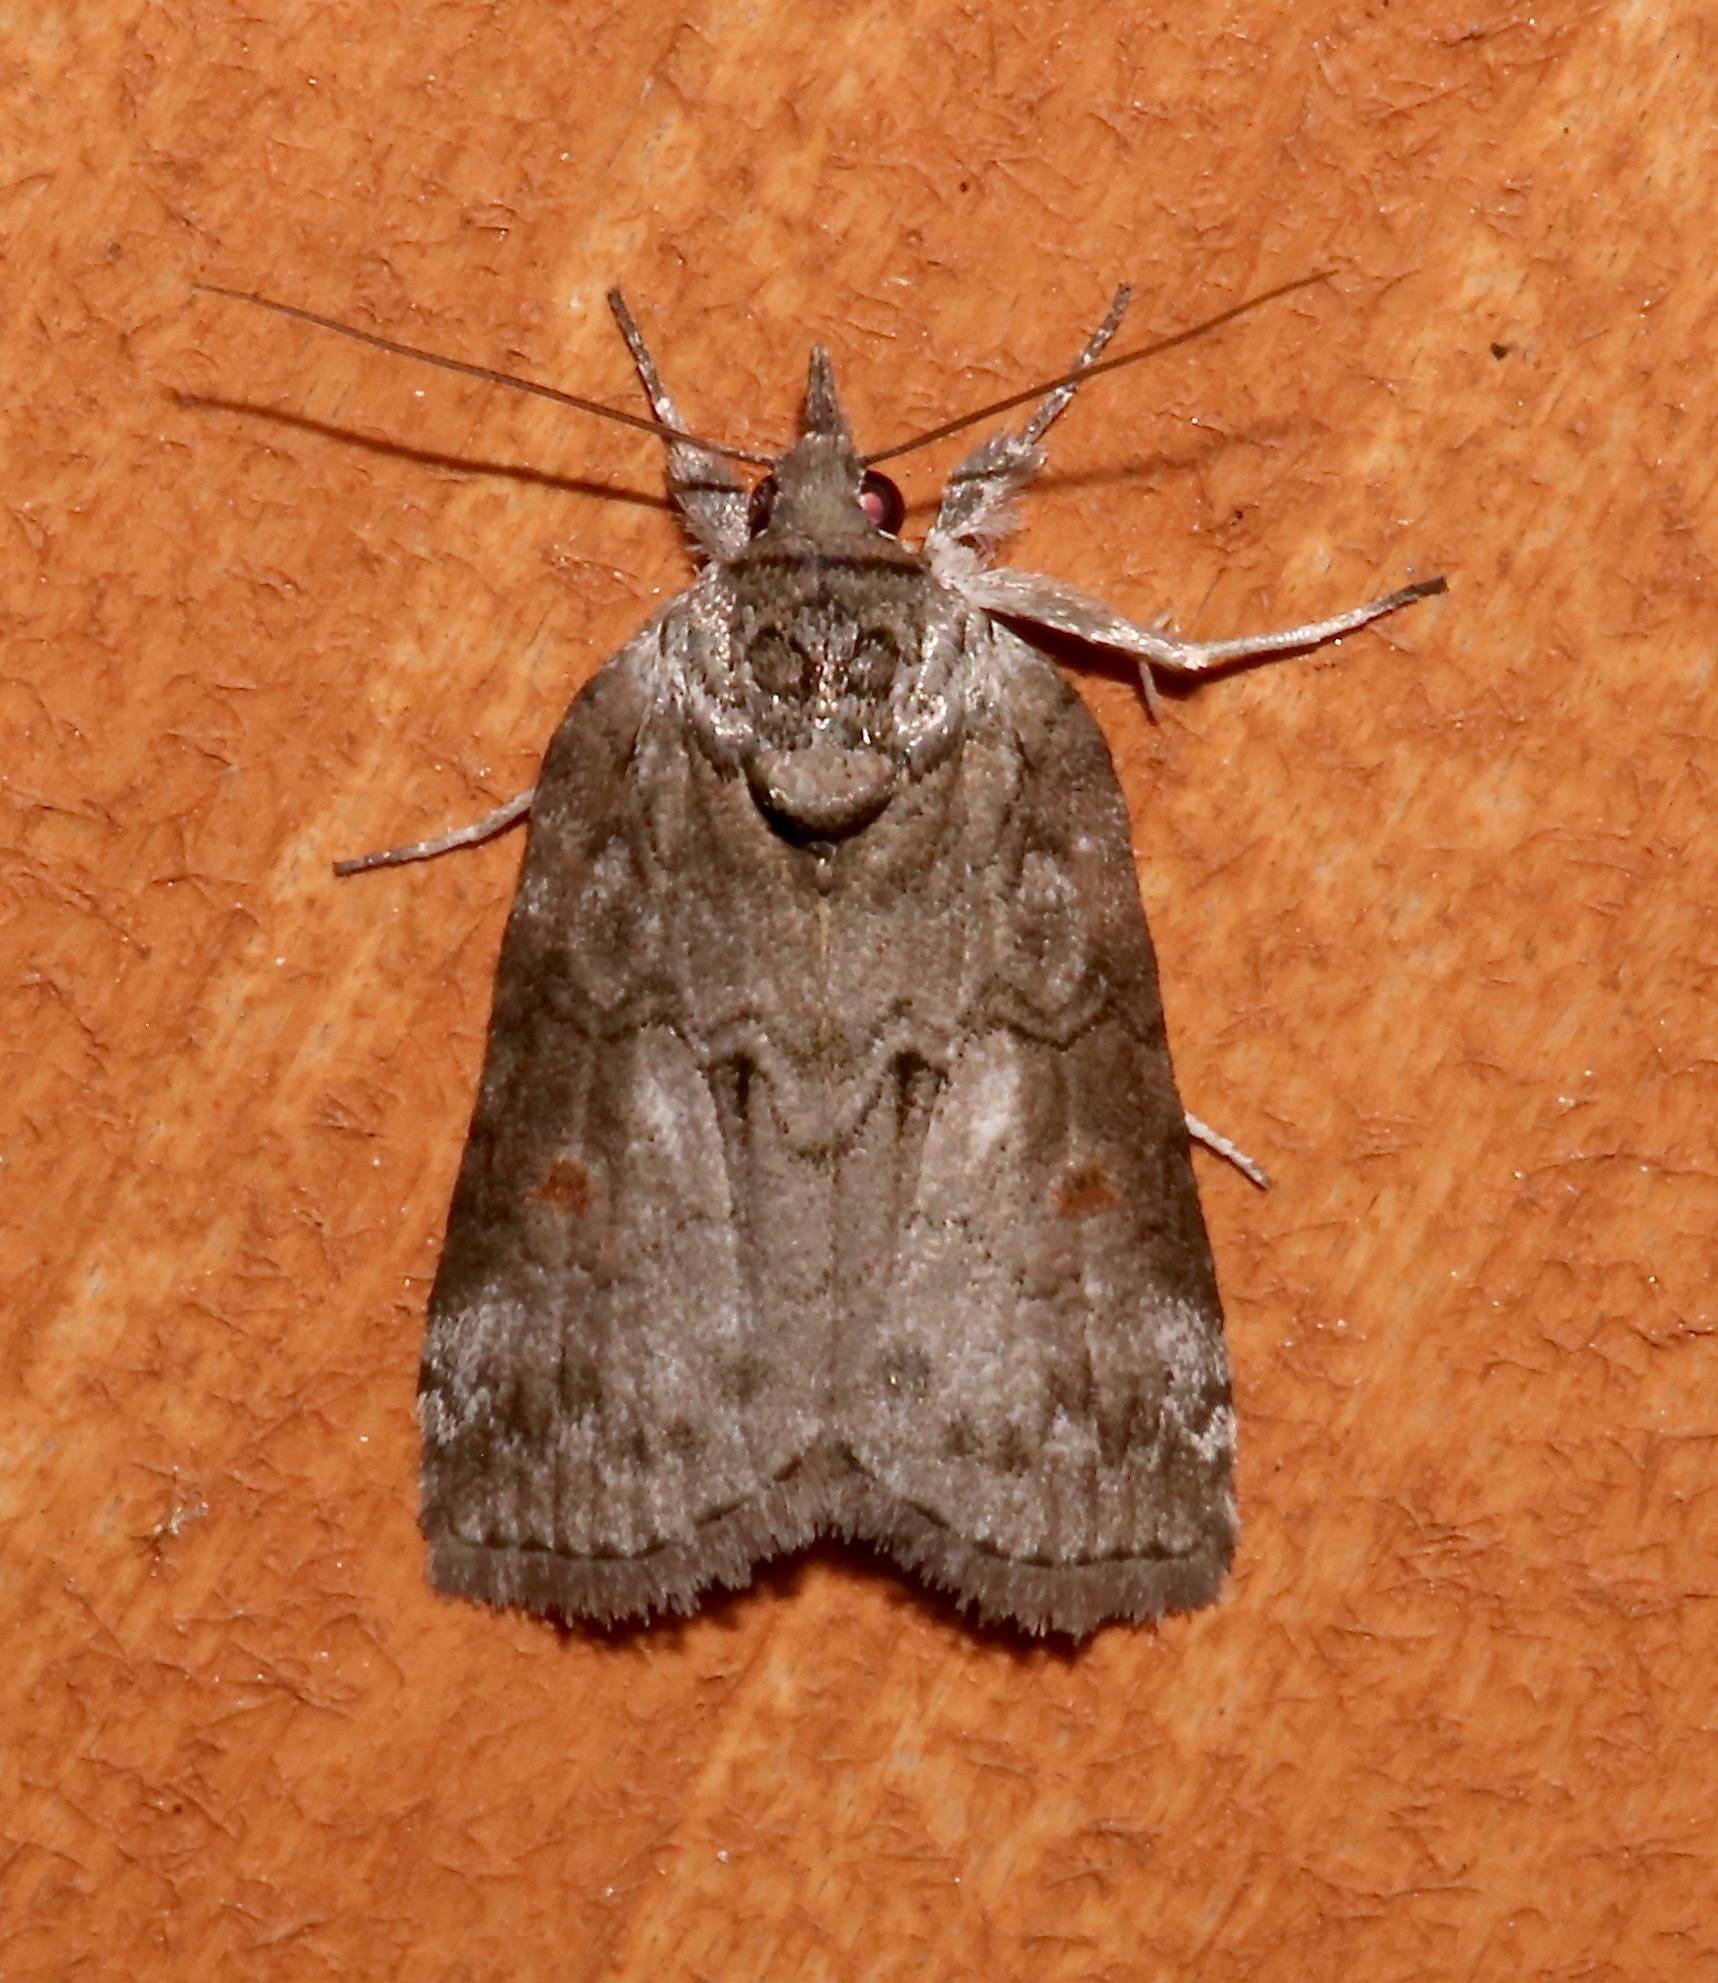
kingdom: Animalia
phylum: Arthropoda
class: Insecta
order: Lepidoptera
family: Nolidae
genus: Nycteola
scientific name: Nycteola metaspilella
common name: Forgotten frigid owlet
